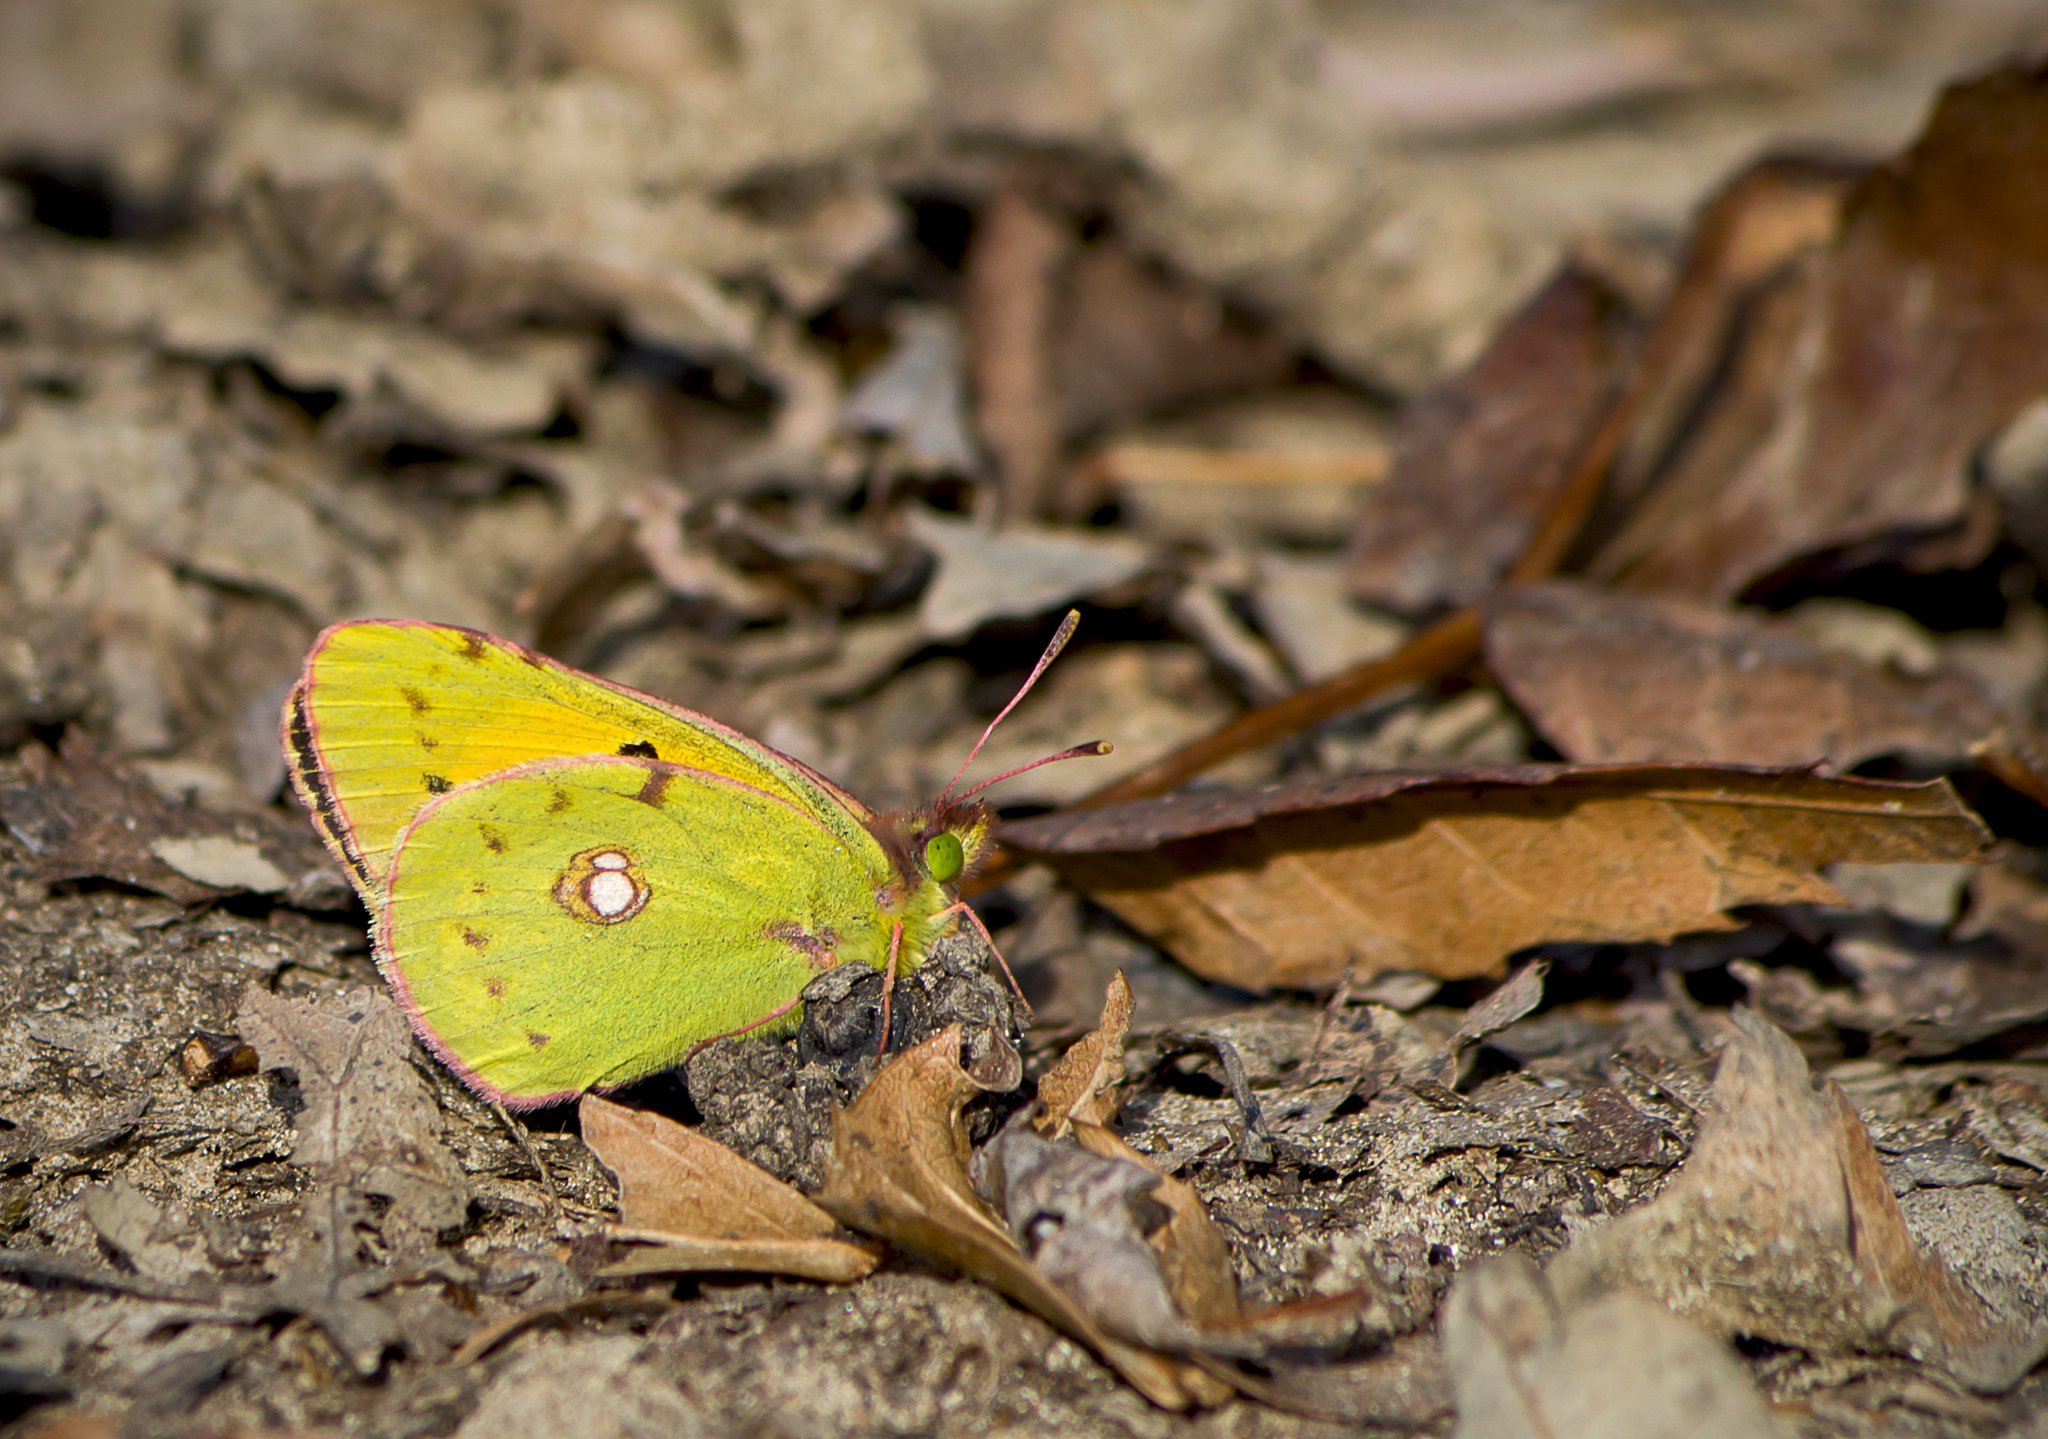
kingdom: Animalia
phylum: Arthropoda
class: Insecta
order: Lepidoptera
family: Pieridae
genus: Colias
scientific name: Colias croceus
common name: Clouded yellow
